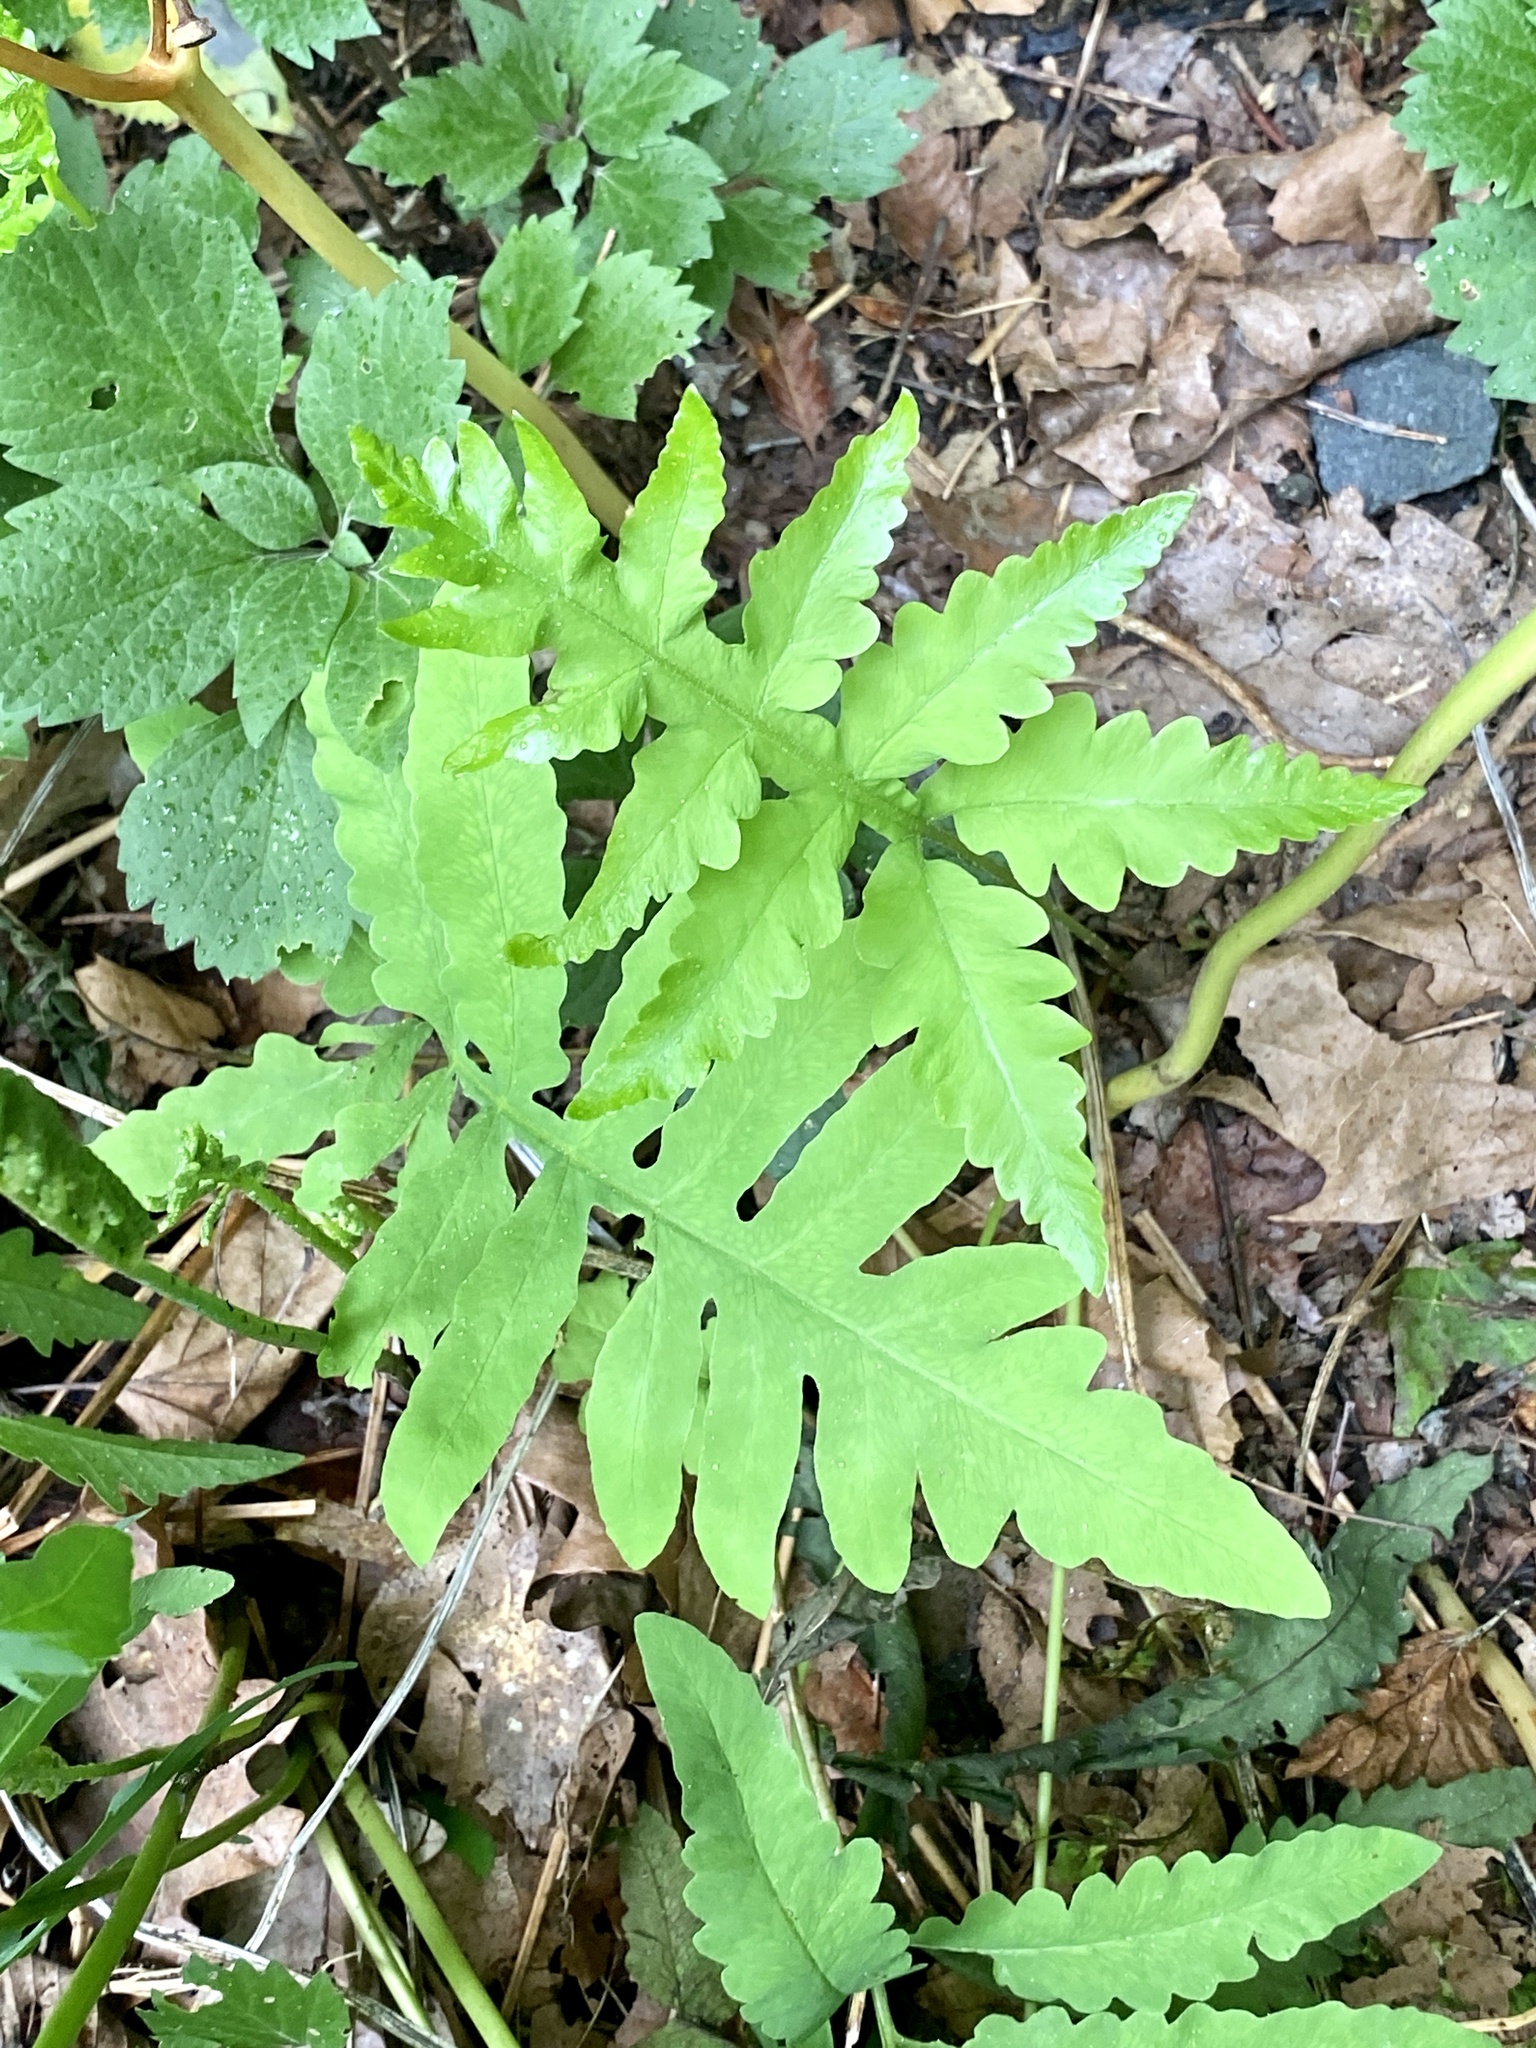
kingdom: Plantae
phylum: Tracheophyta
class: Polypodiopsida
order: Polypodiales
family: Onocleaceae
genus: Onoclea
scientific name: Onoclea sensibilis
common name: Sensitive fern
